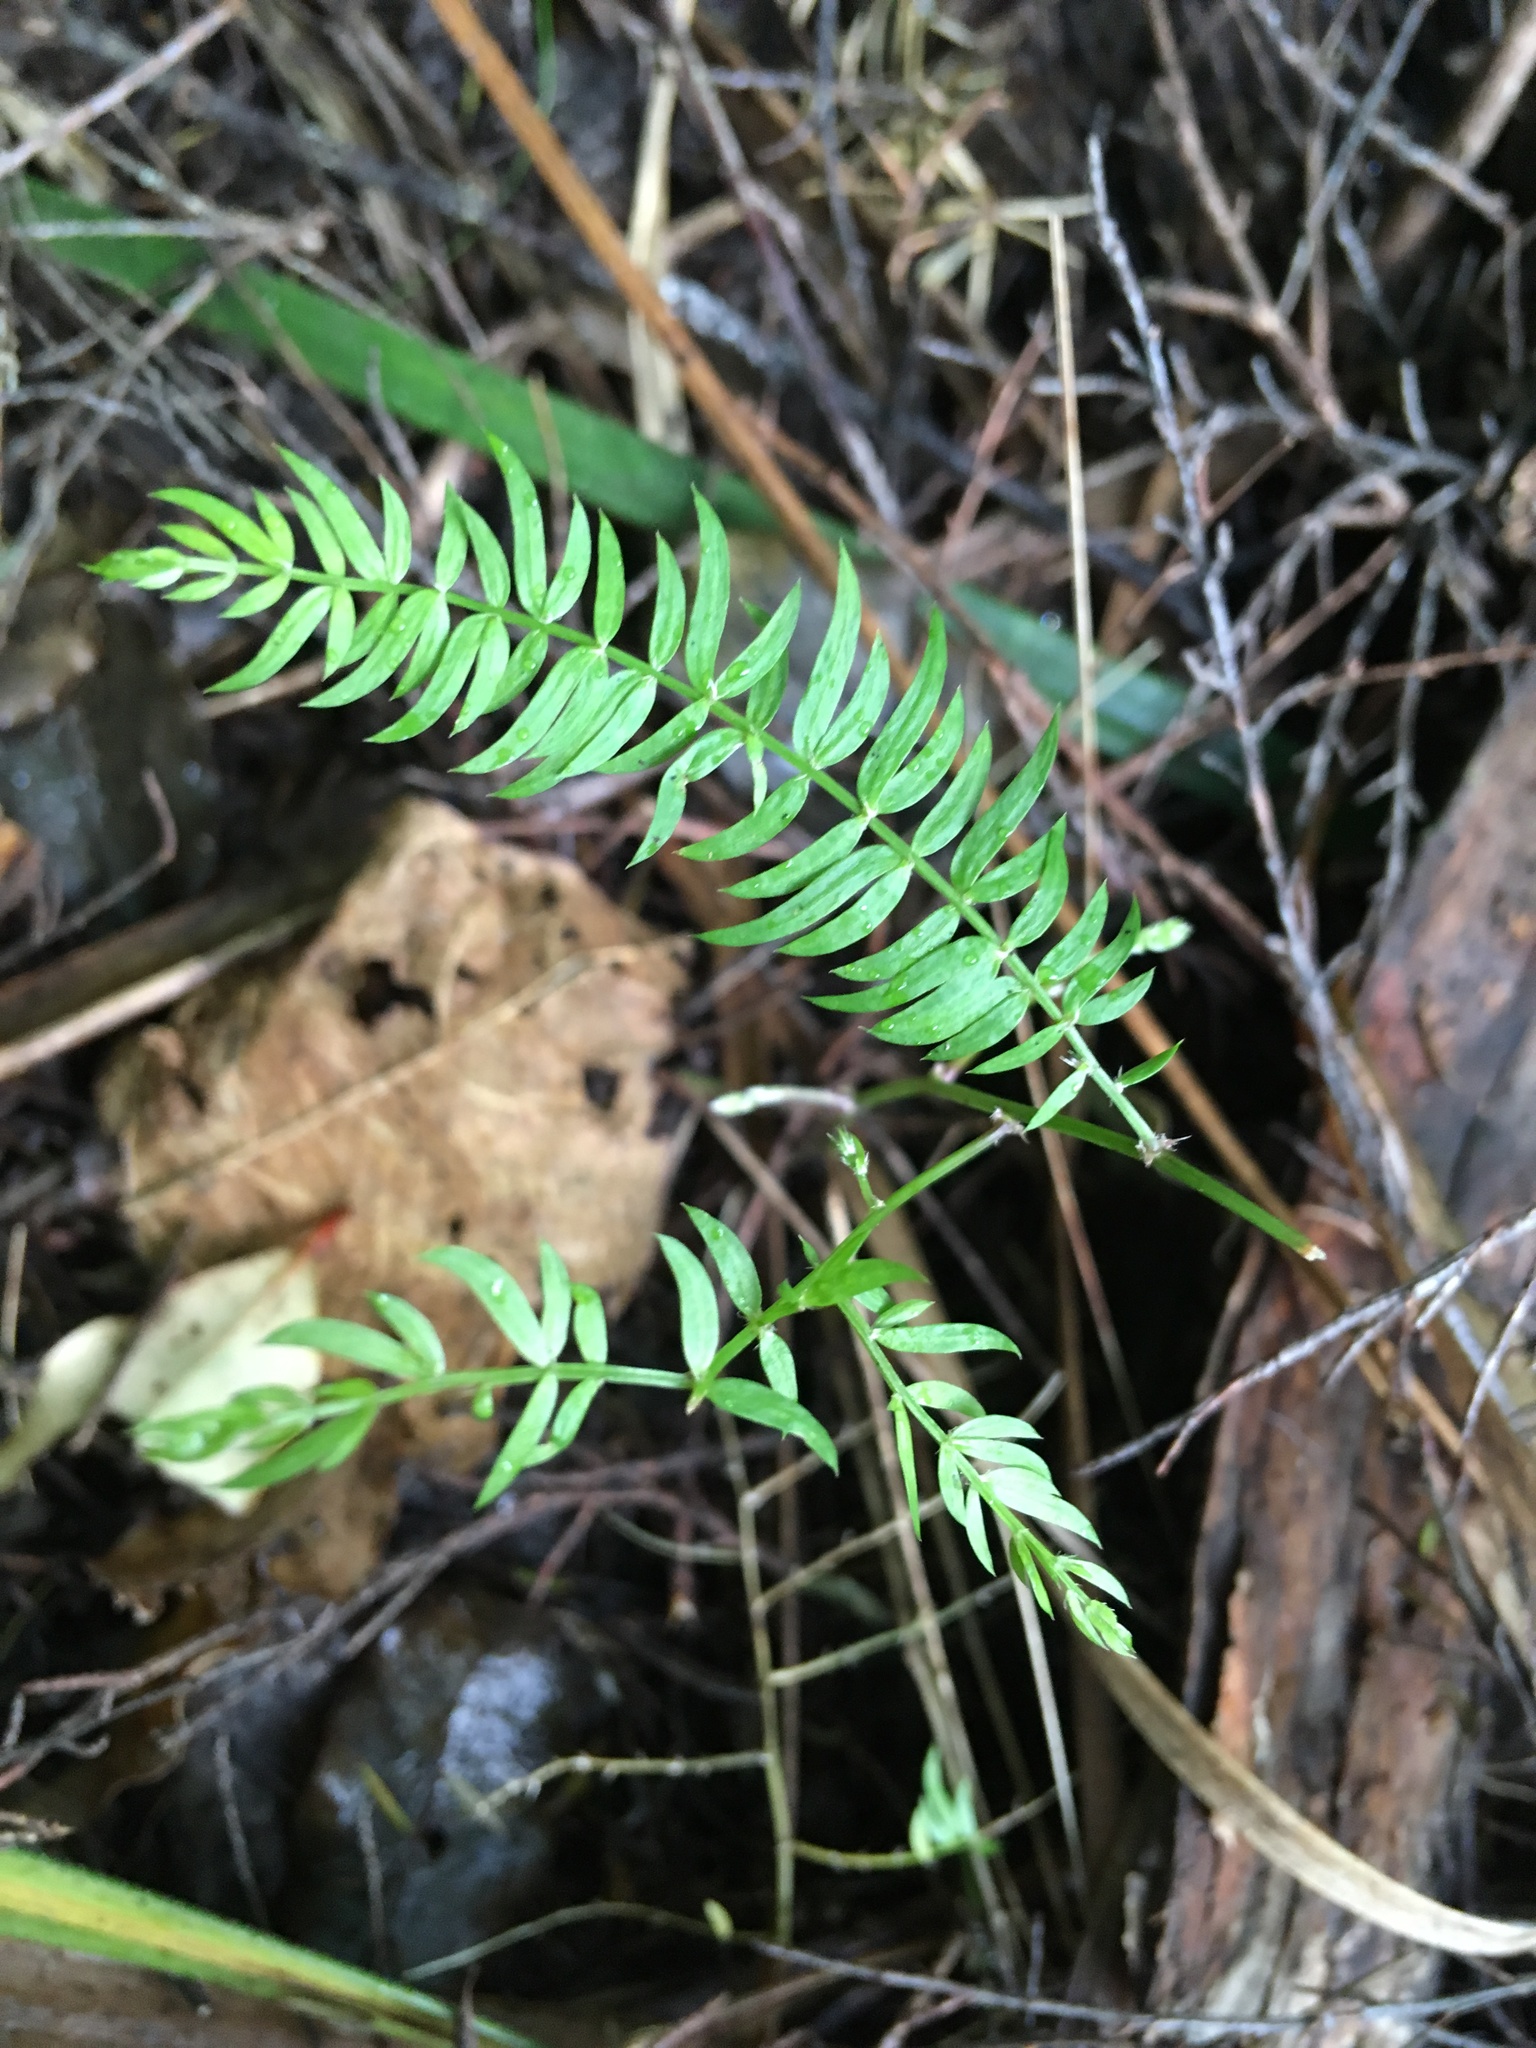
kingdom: Plantae
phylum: Tracheophyta
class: Liliopsida
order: Asparagales
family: Asparagaceae
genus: Asparagus
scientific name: Asparagus scandens
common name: Asparagus-fern
